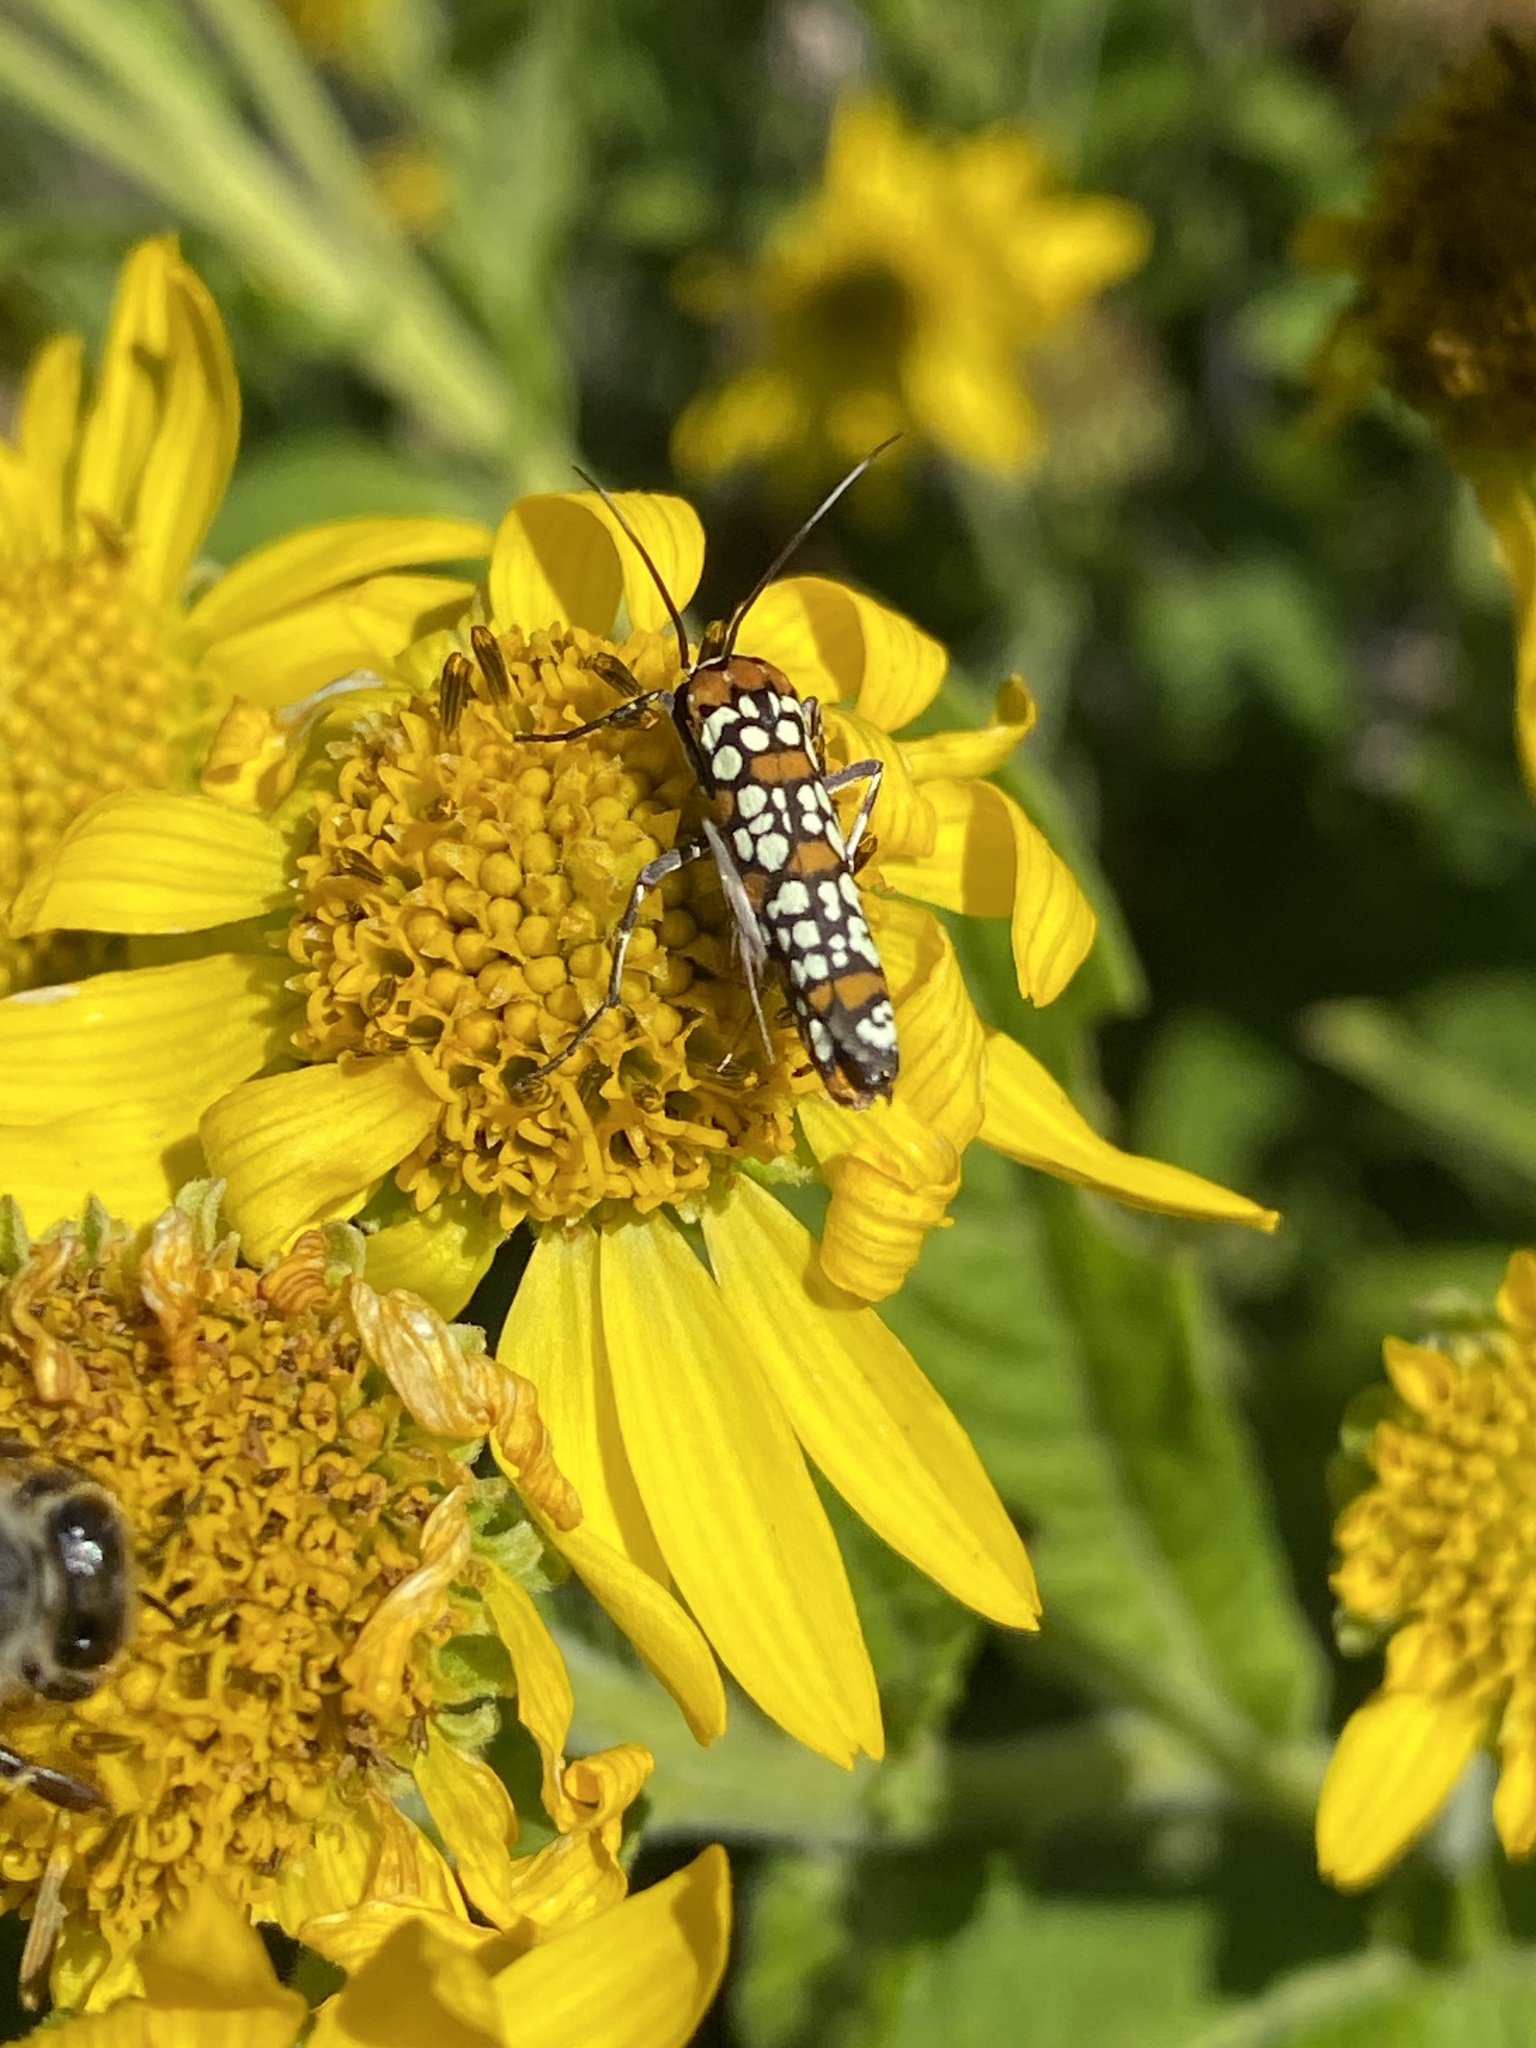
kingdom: Animalia
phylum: Arthropoda
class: Insecta
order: Lepidoptera
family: Attevidae
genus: Atteva
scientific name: Atteva punctella
